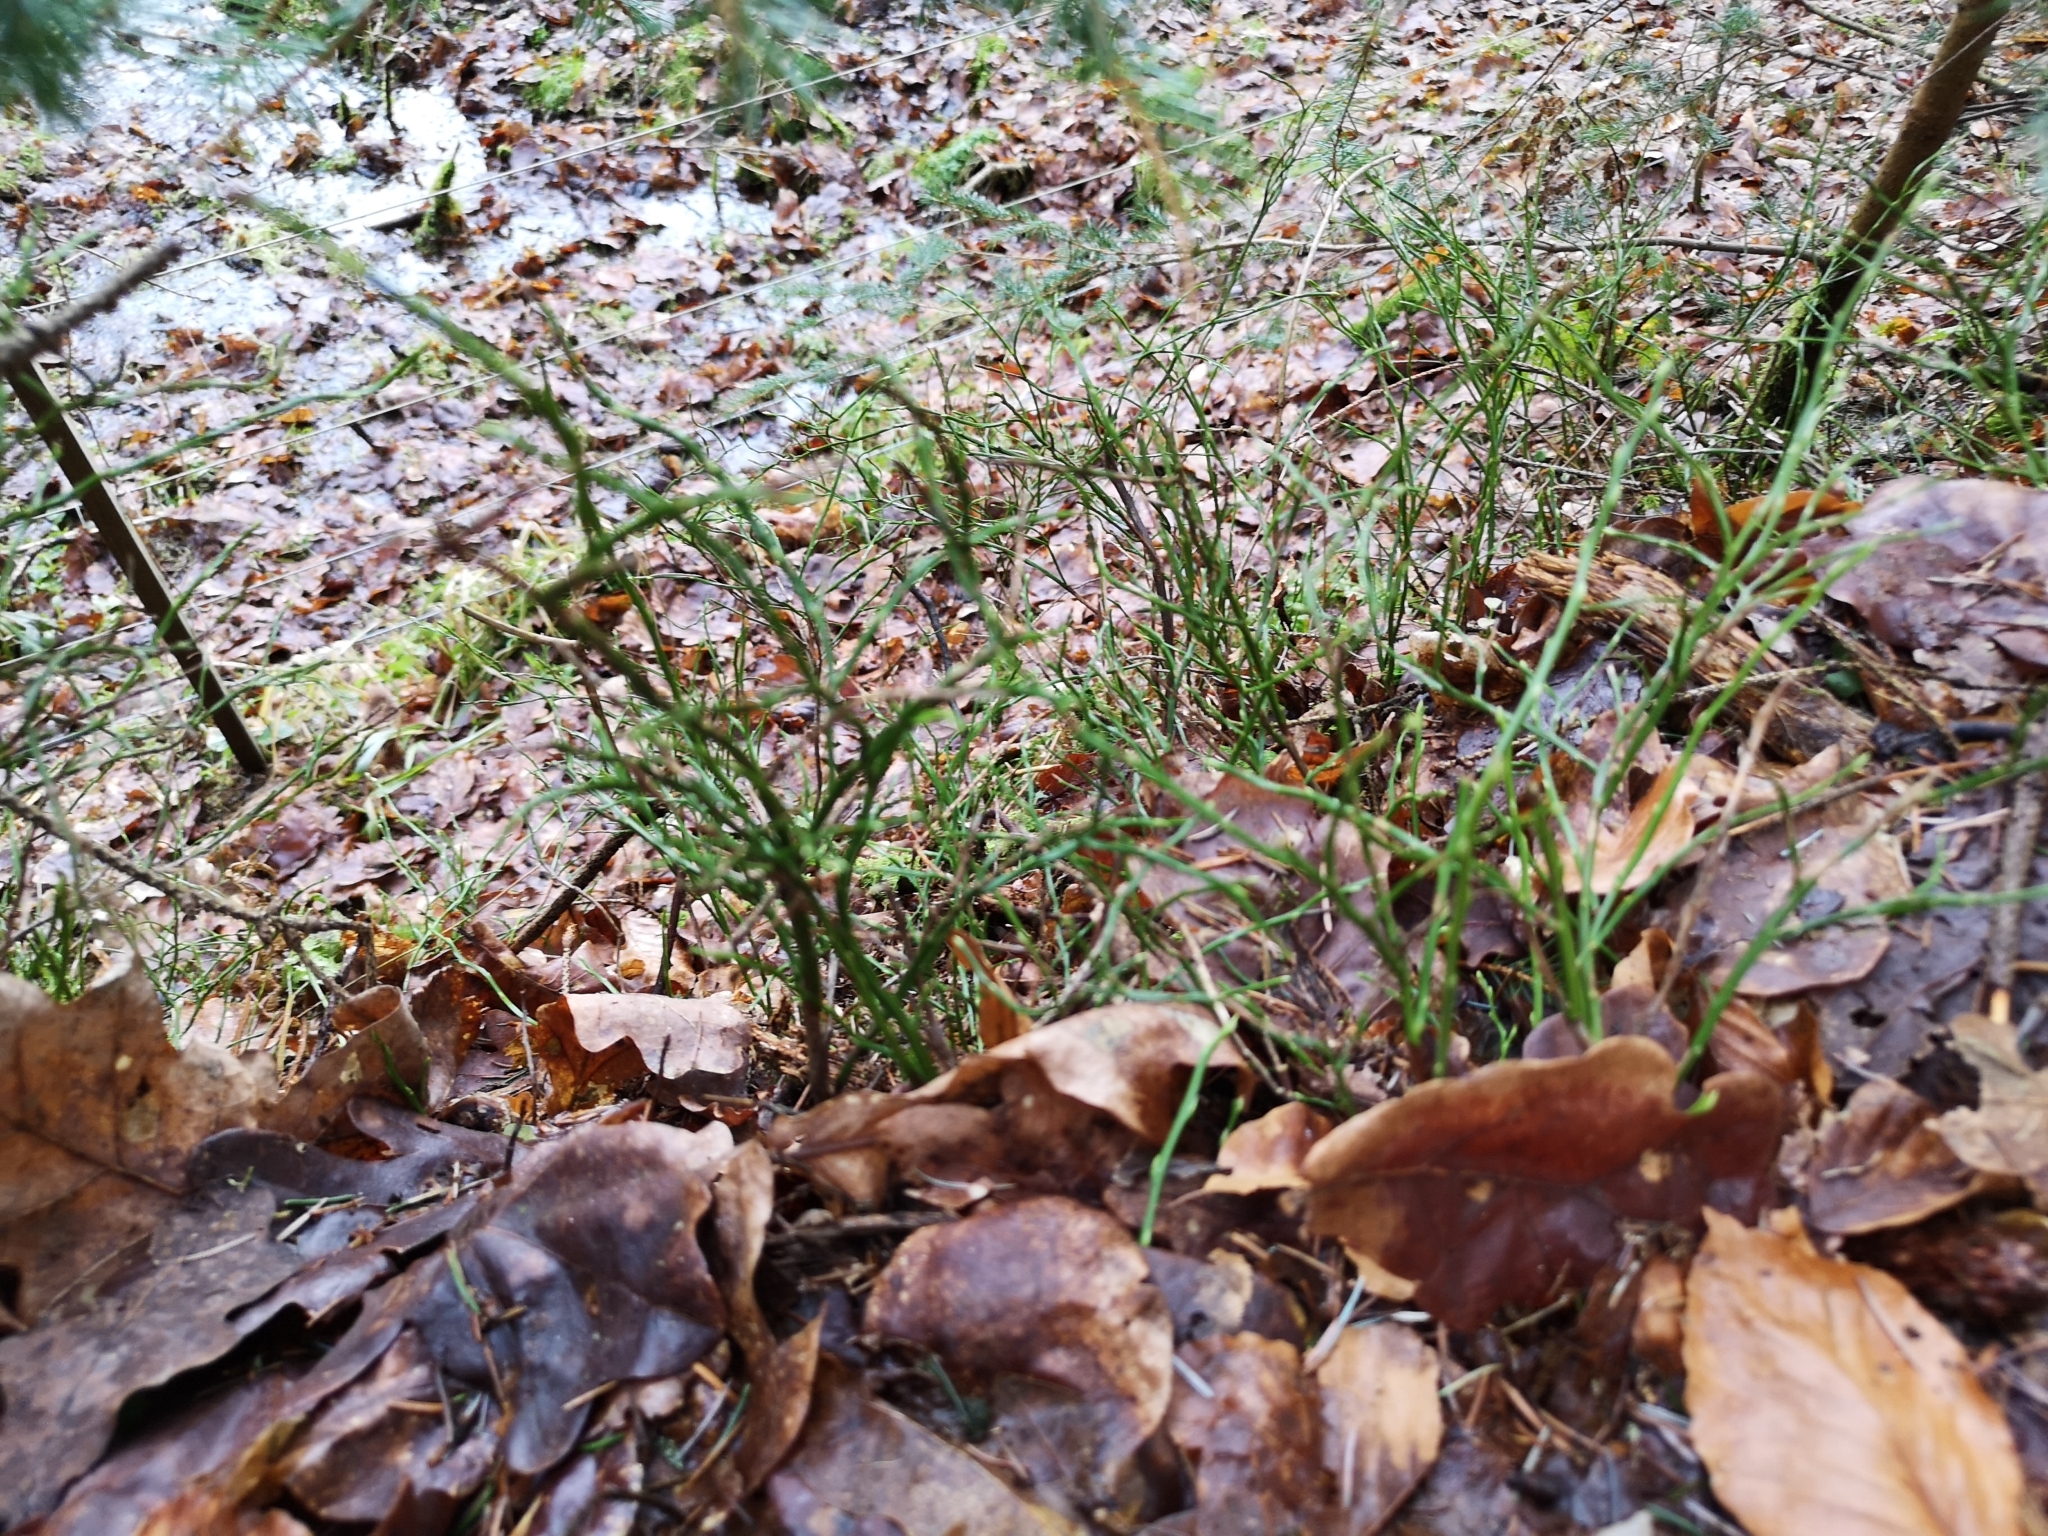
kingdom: Plantae
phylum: Tracheophyta
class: Magnoliopsida
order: Ericales
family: Ericaceae
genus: Vaccinium
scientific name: Vaccinium myrtillus
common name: Bilberry
